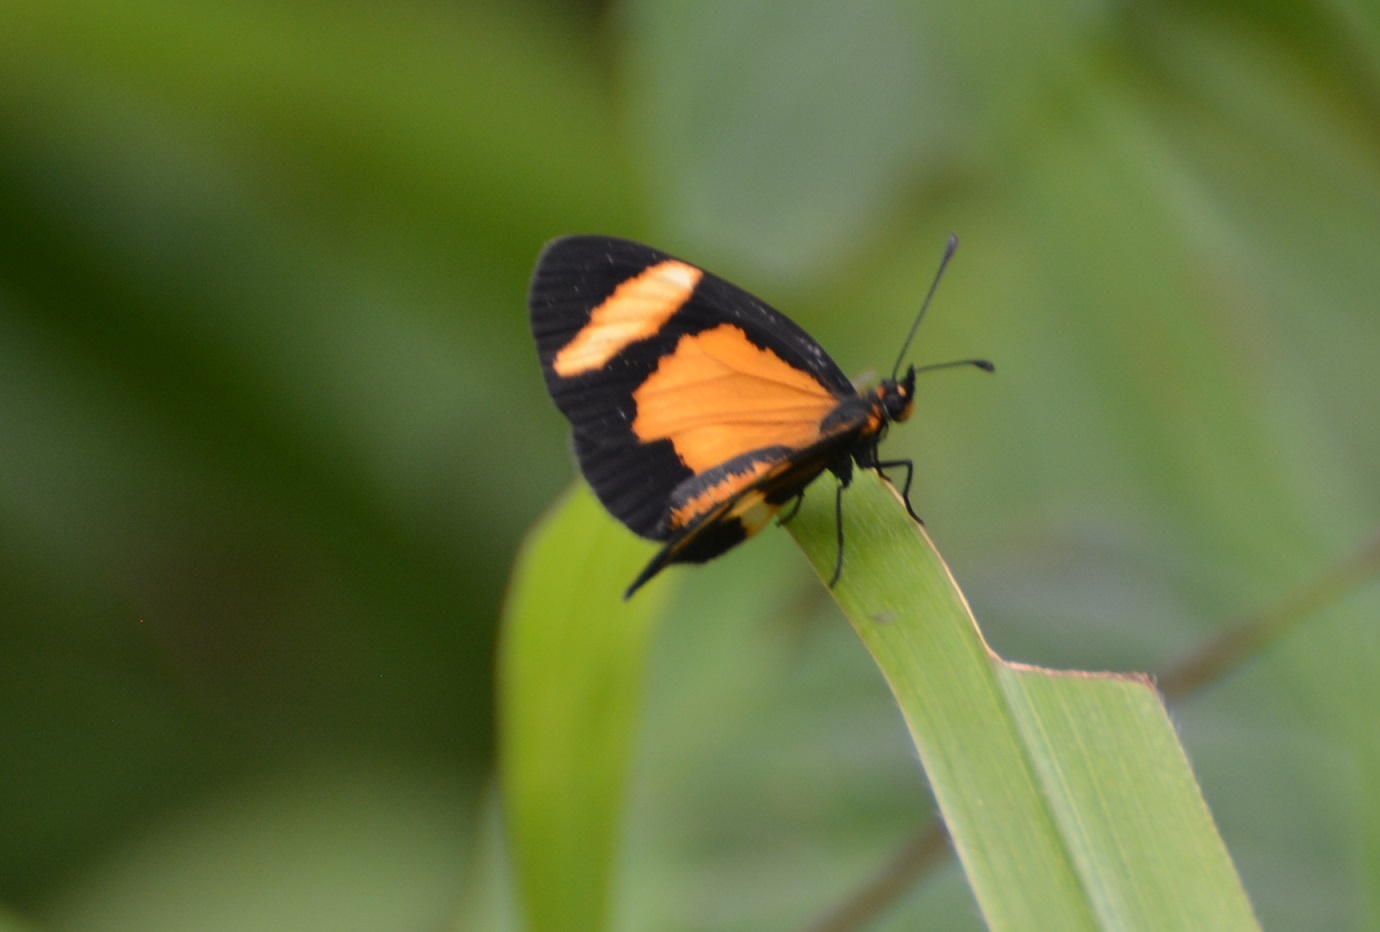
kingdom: Animalia
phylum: Arthropoda
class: Insecta
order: Lepidoptera
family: Nymphalidae
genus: Microtia
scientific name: Microtia elva
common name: Elf
